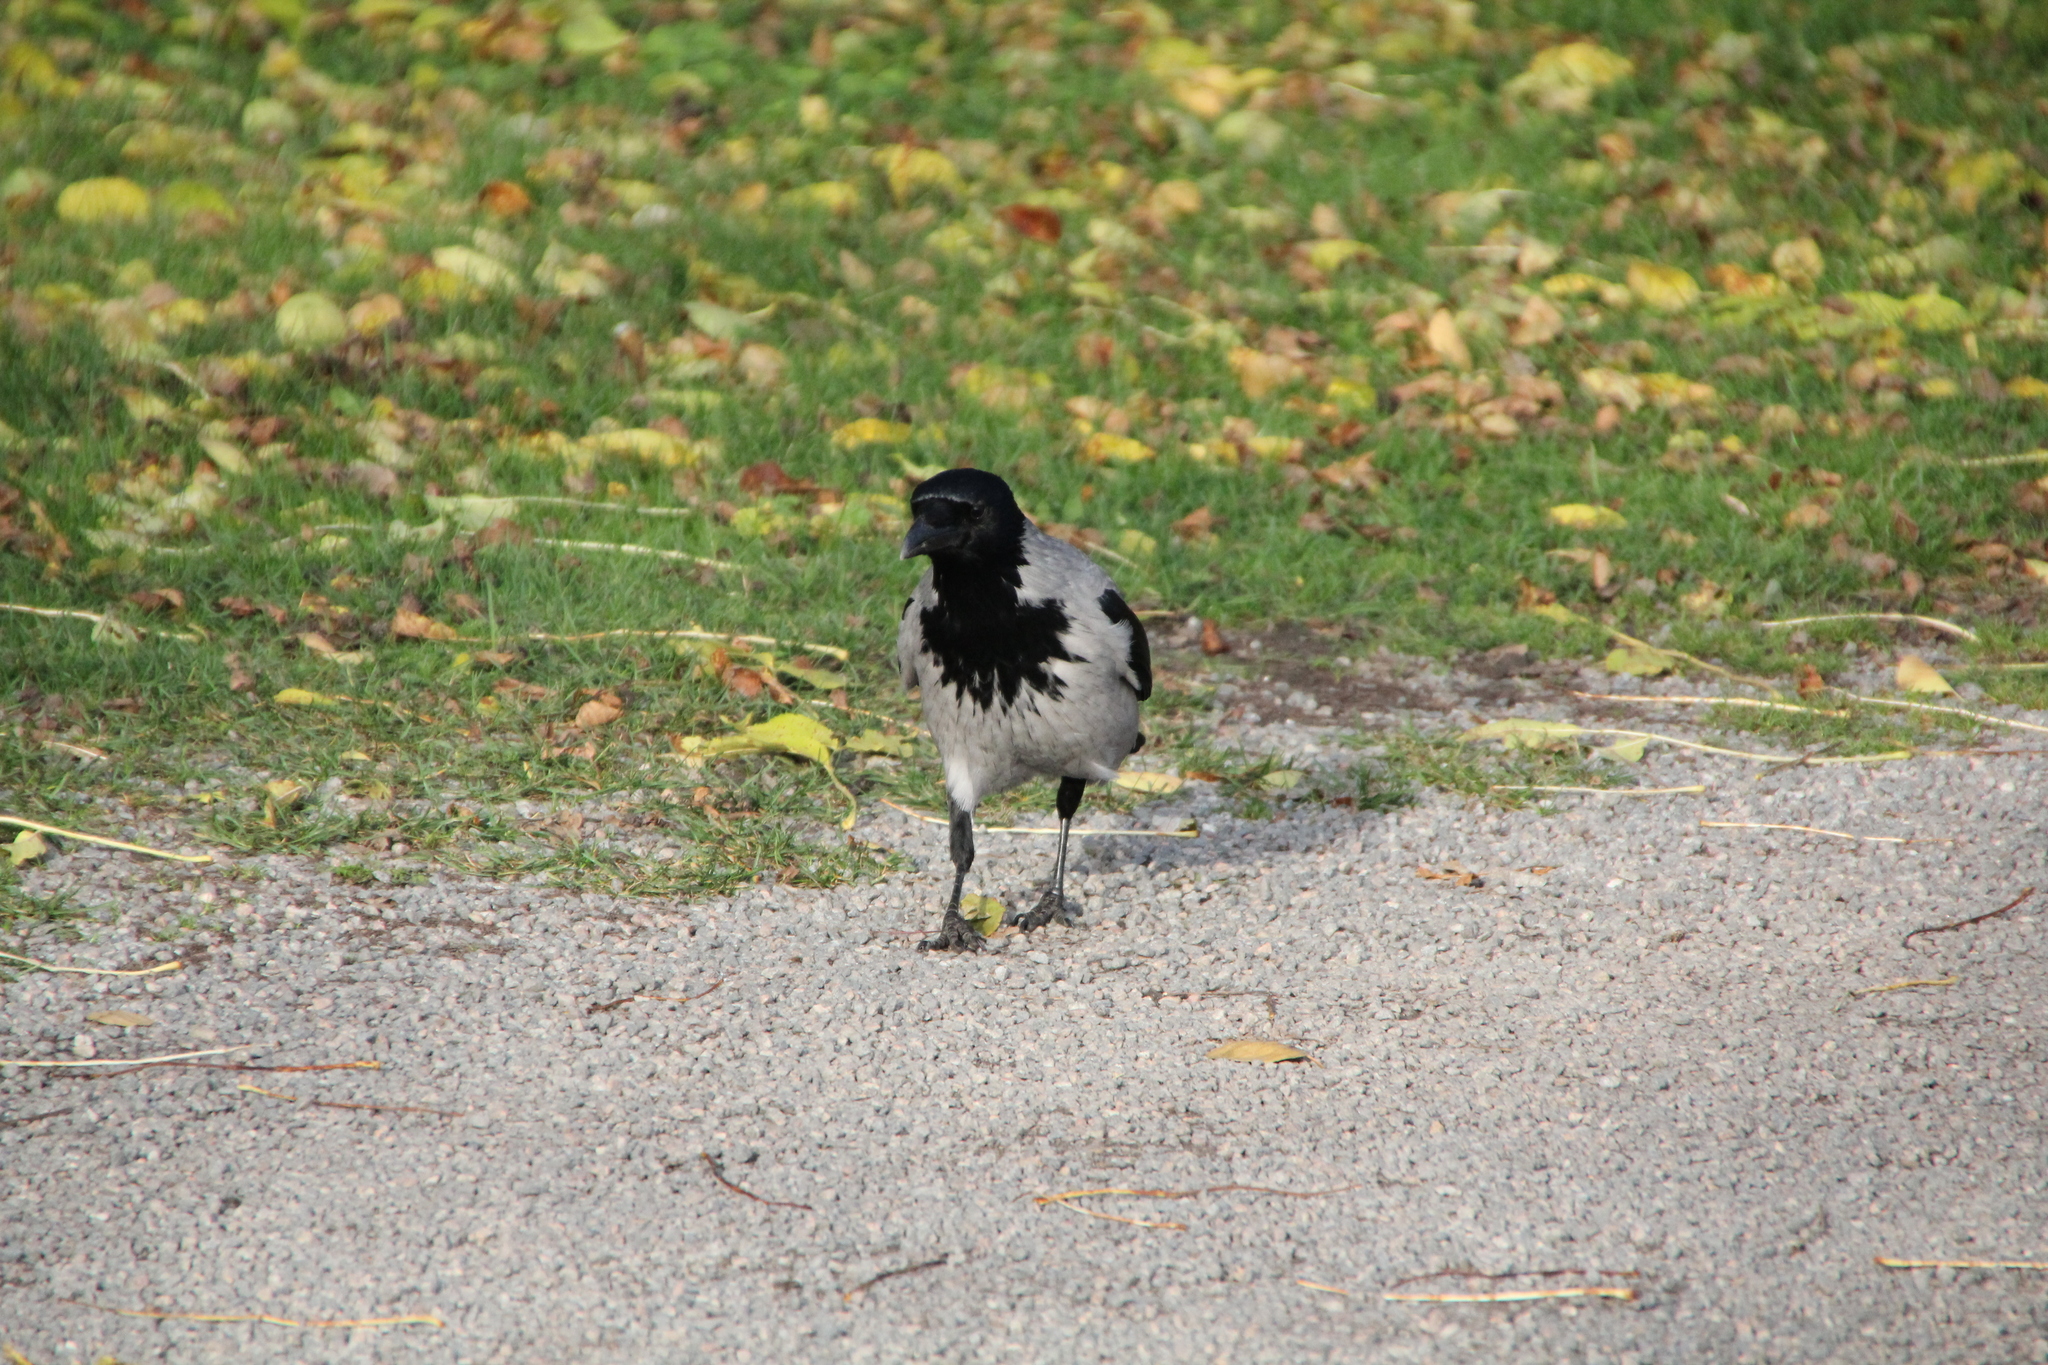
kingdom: Animalia
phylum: Chordata
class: Aves
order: Passeriformes
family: Corvidae
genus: Corvus
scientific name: Corvus cornix
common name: Hooded crow
